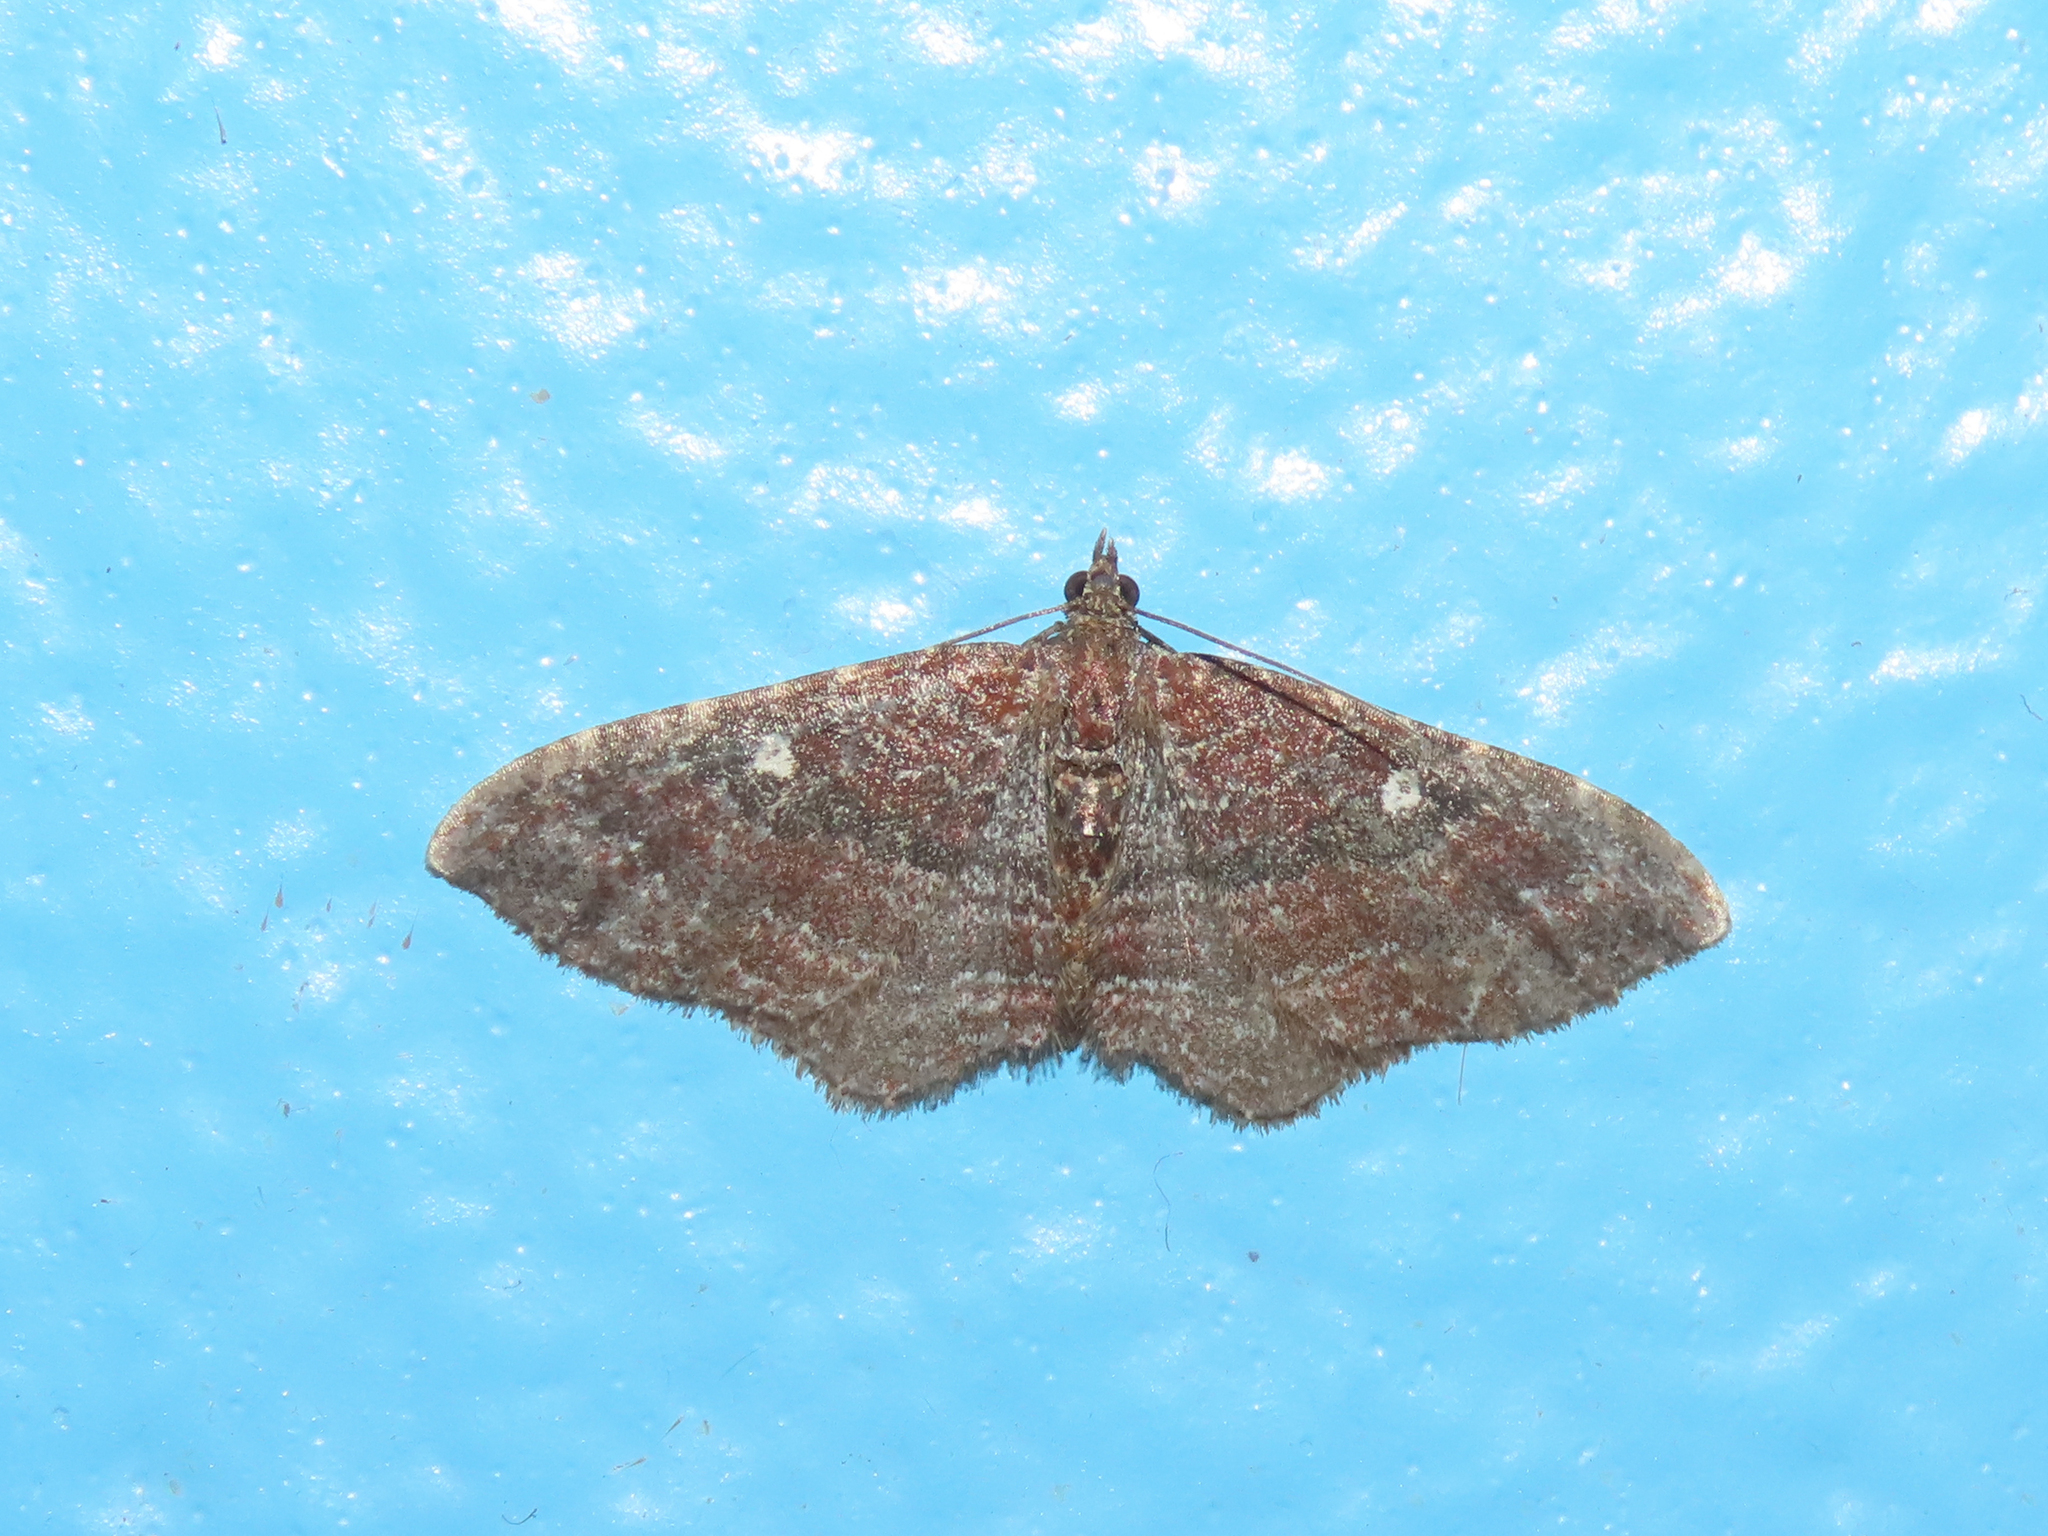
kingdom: Animalia
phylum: Arthropoda
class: Insecta
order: Lepidoptera
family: Geometridae
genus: Orthonama
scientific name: Orthonama obstipata
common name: The gem
